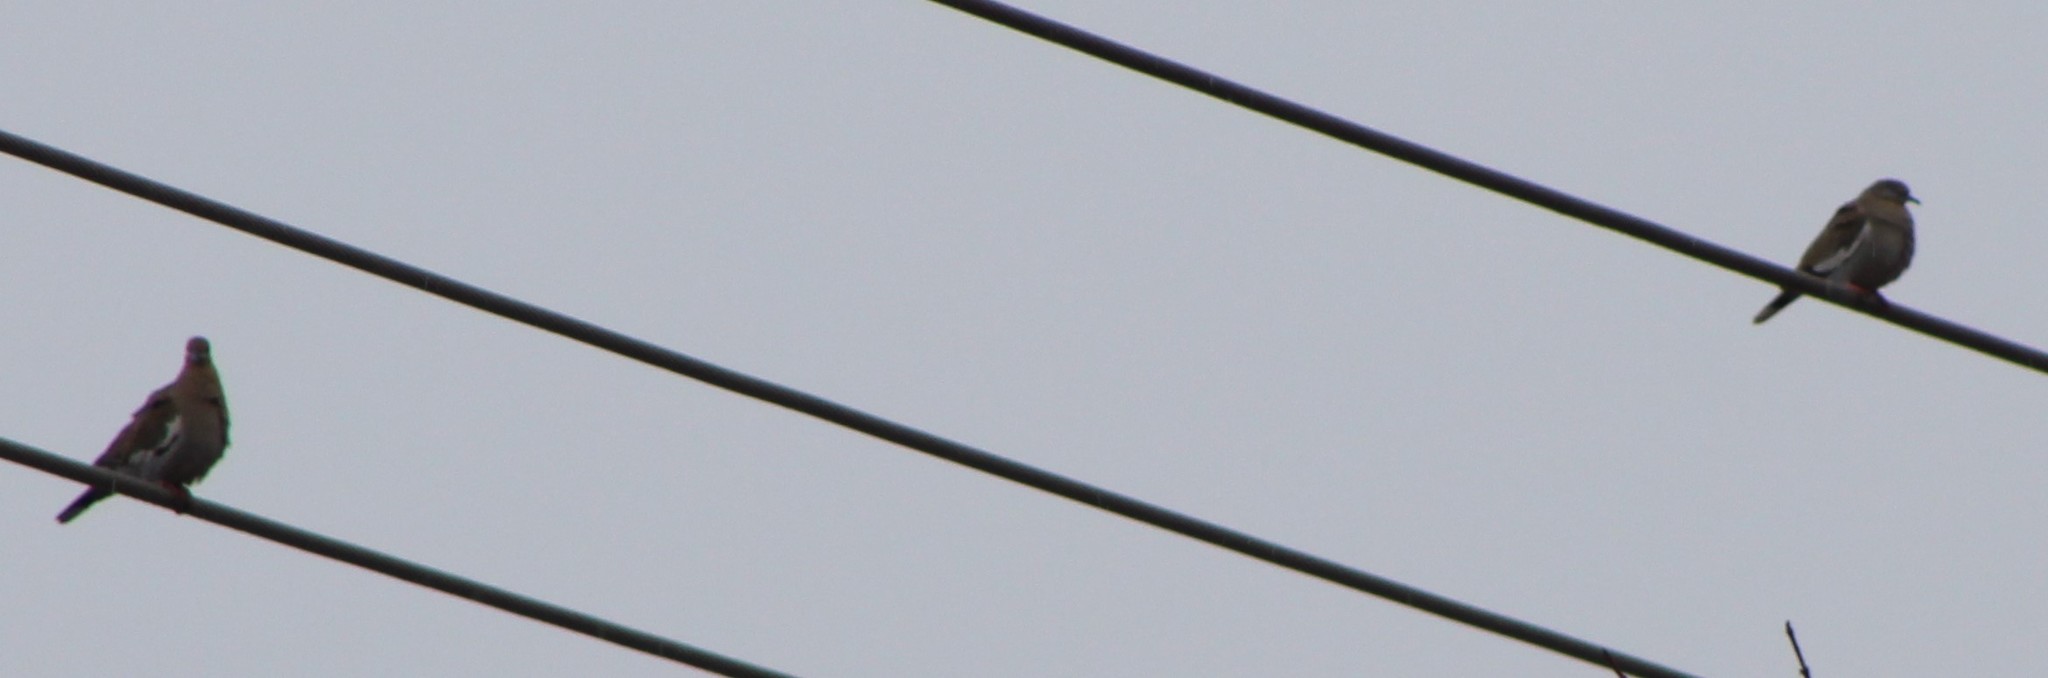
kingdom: Animalia
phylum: Chordata
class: Aves
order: Columbiformes
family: Columbidae
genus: Zenaida
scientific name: Zenaida asiatica
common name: White-winged dove
